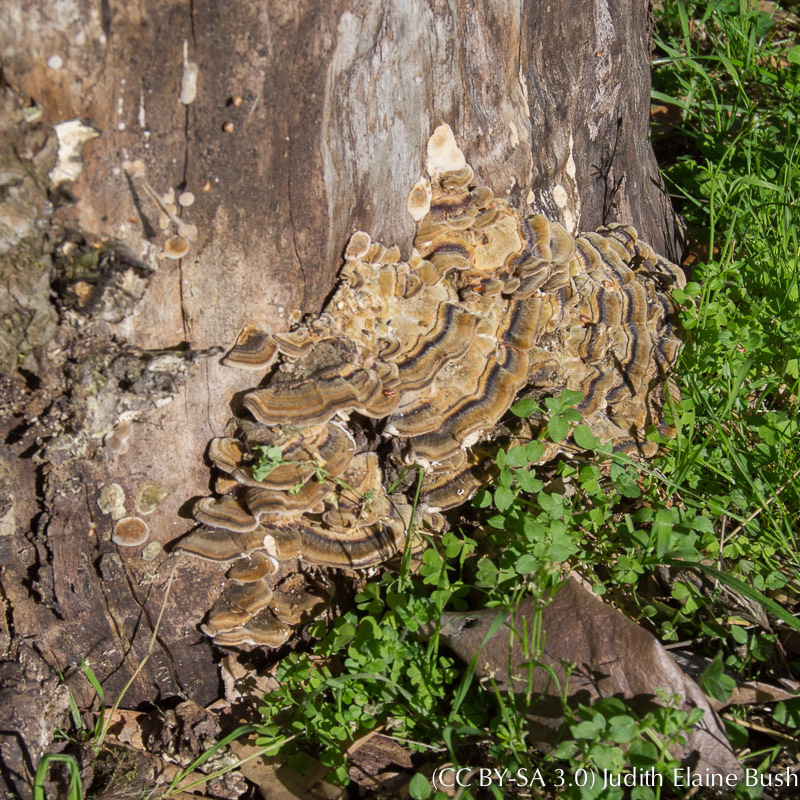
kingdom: Fungi
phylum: Basidiomycota
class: Agaricomycetes
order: Polyporales
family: Polyporaceae
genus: Trametes
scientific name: Trametes versicolor
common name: Turkeytail
